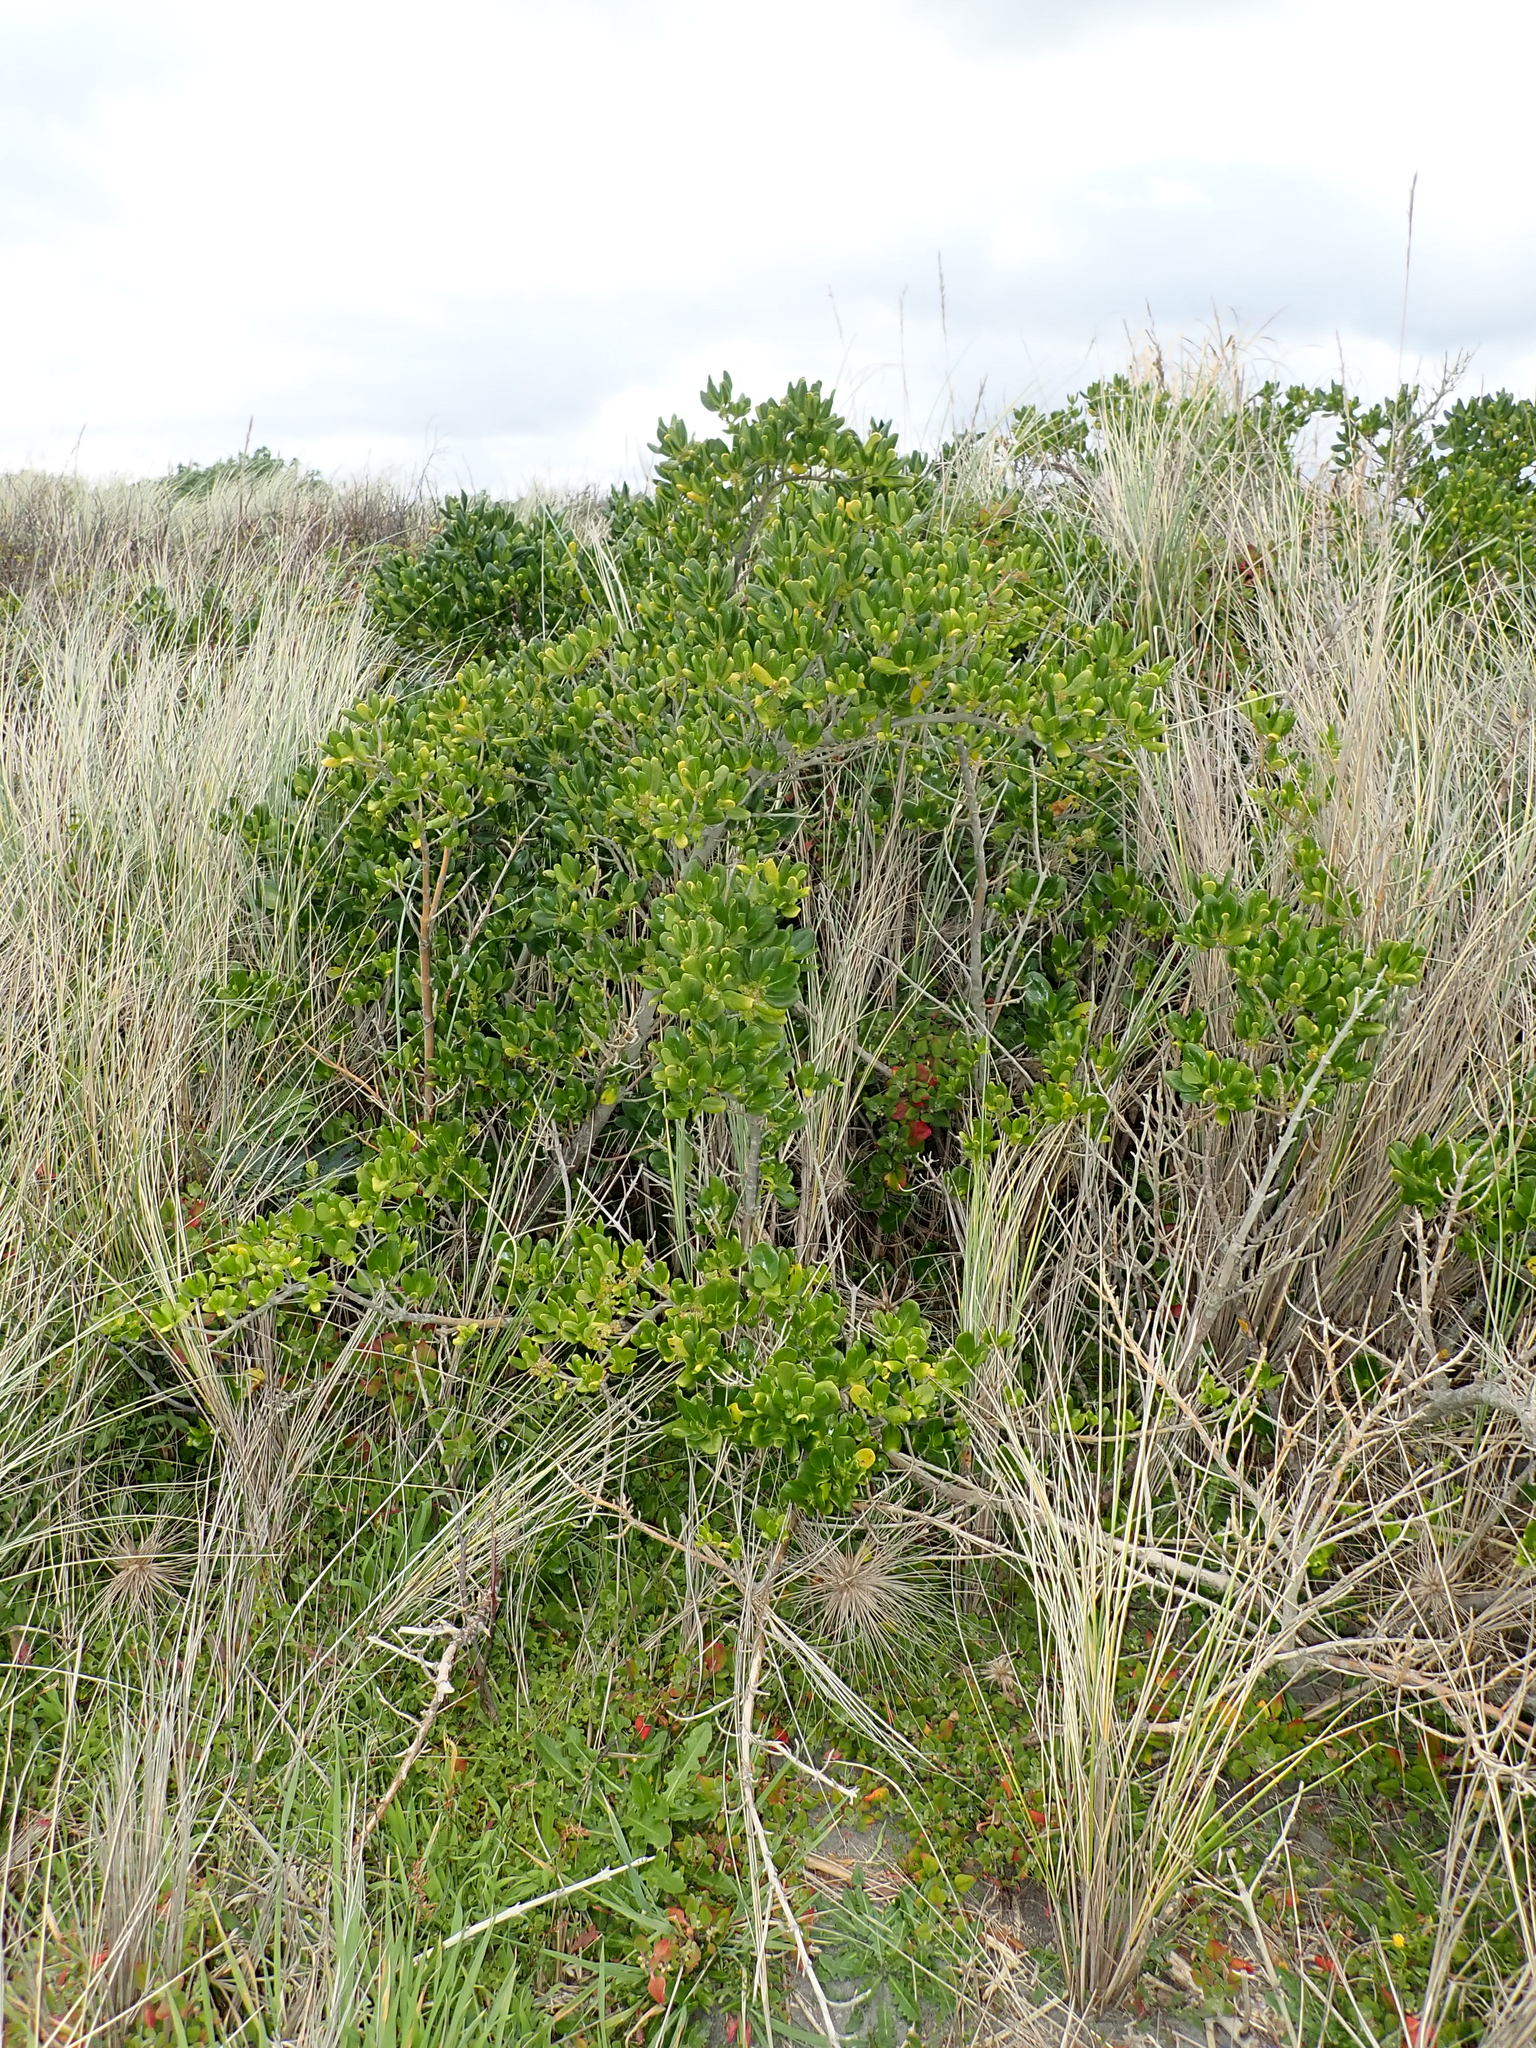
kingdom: Plantae
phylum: Tracheophyta
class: Magnoliopsida
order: Gentianales
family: Rubiaceae
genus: Coprosma
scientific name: Coprosma repens
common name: Tree bedstraw
